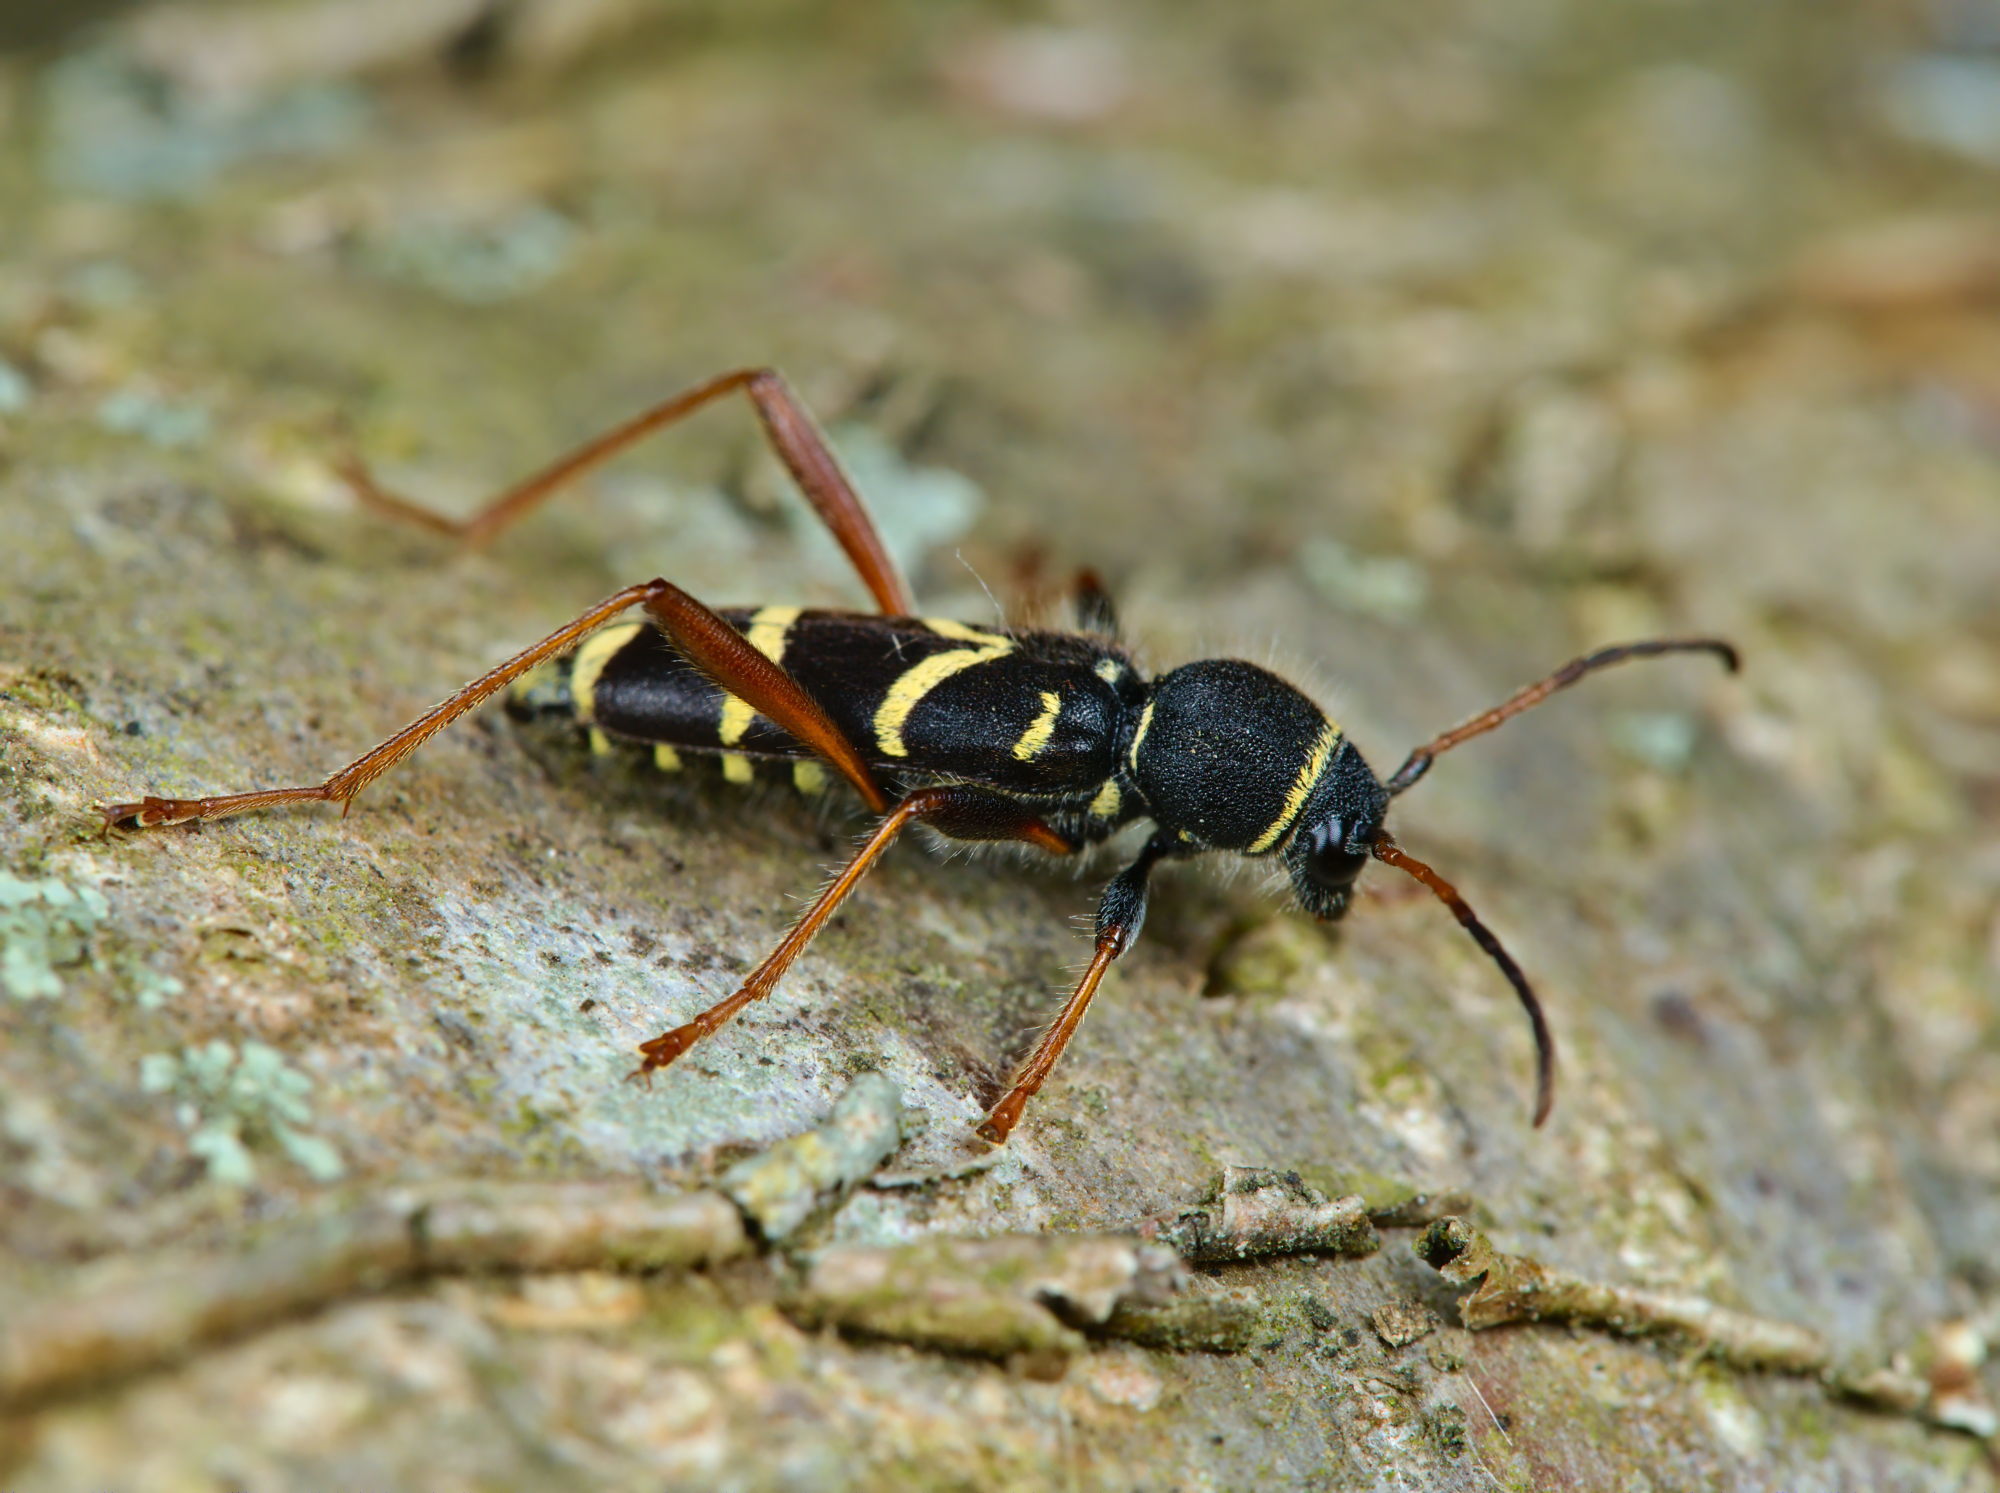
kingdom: Animalia
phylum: Arthropoda
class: Insecta
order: Coleoptera
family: Cerambycidae
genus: Clytus
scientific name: Clytus arietis
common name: Wasp beetle
